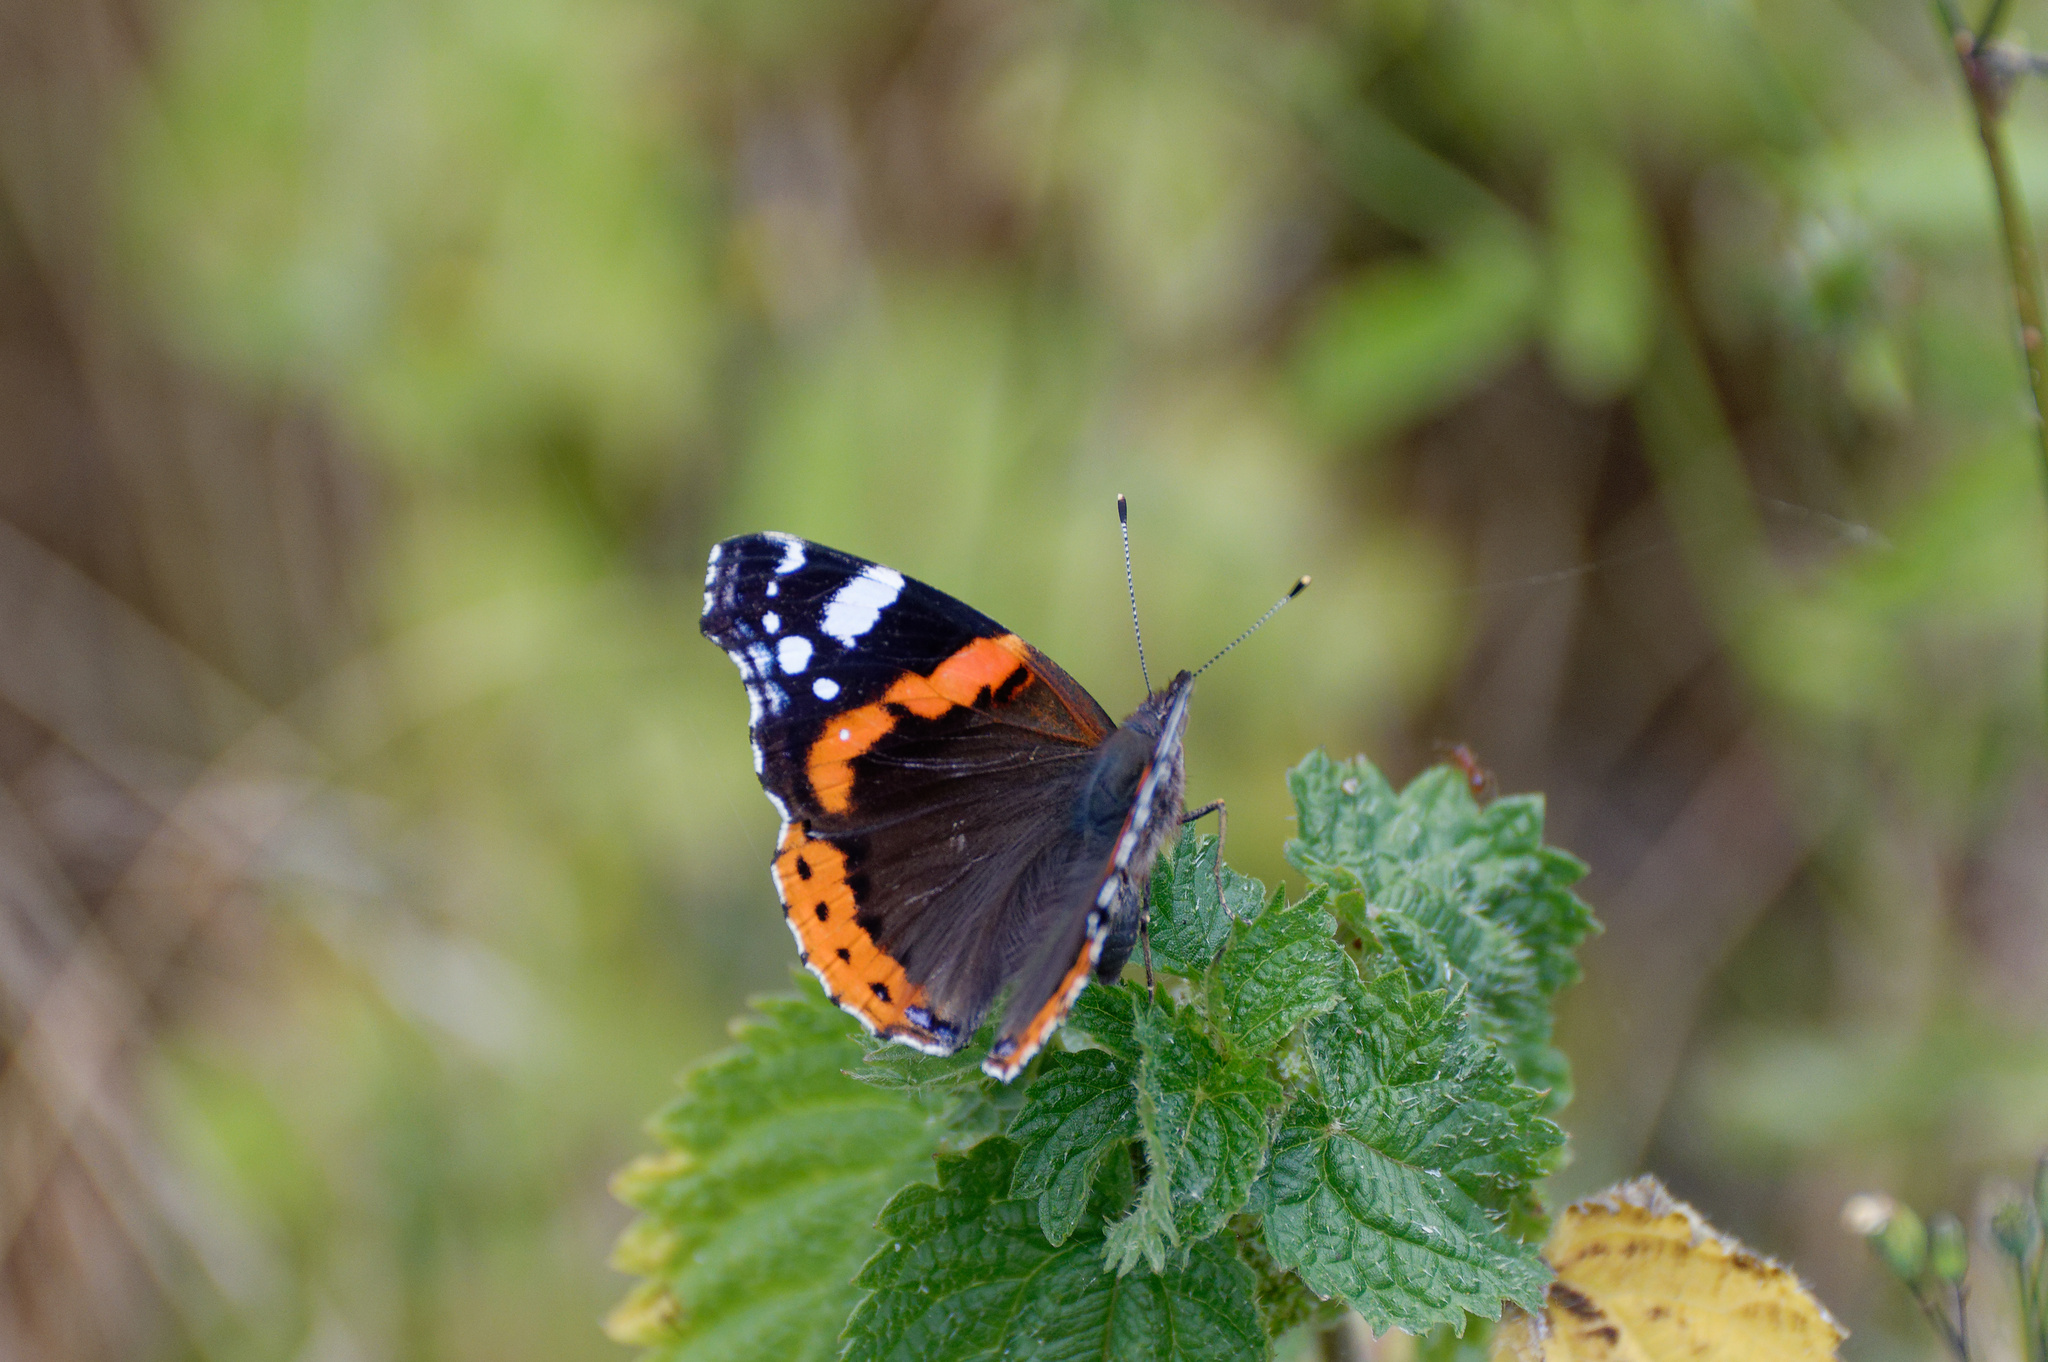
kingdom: Animalia
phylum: Arthropoda
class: Insecta
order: Lepidoptera
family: Nymphalidae
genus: Vanessa
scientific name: Vanessa atalanta
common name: Red admiral
